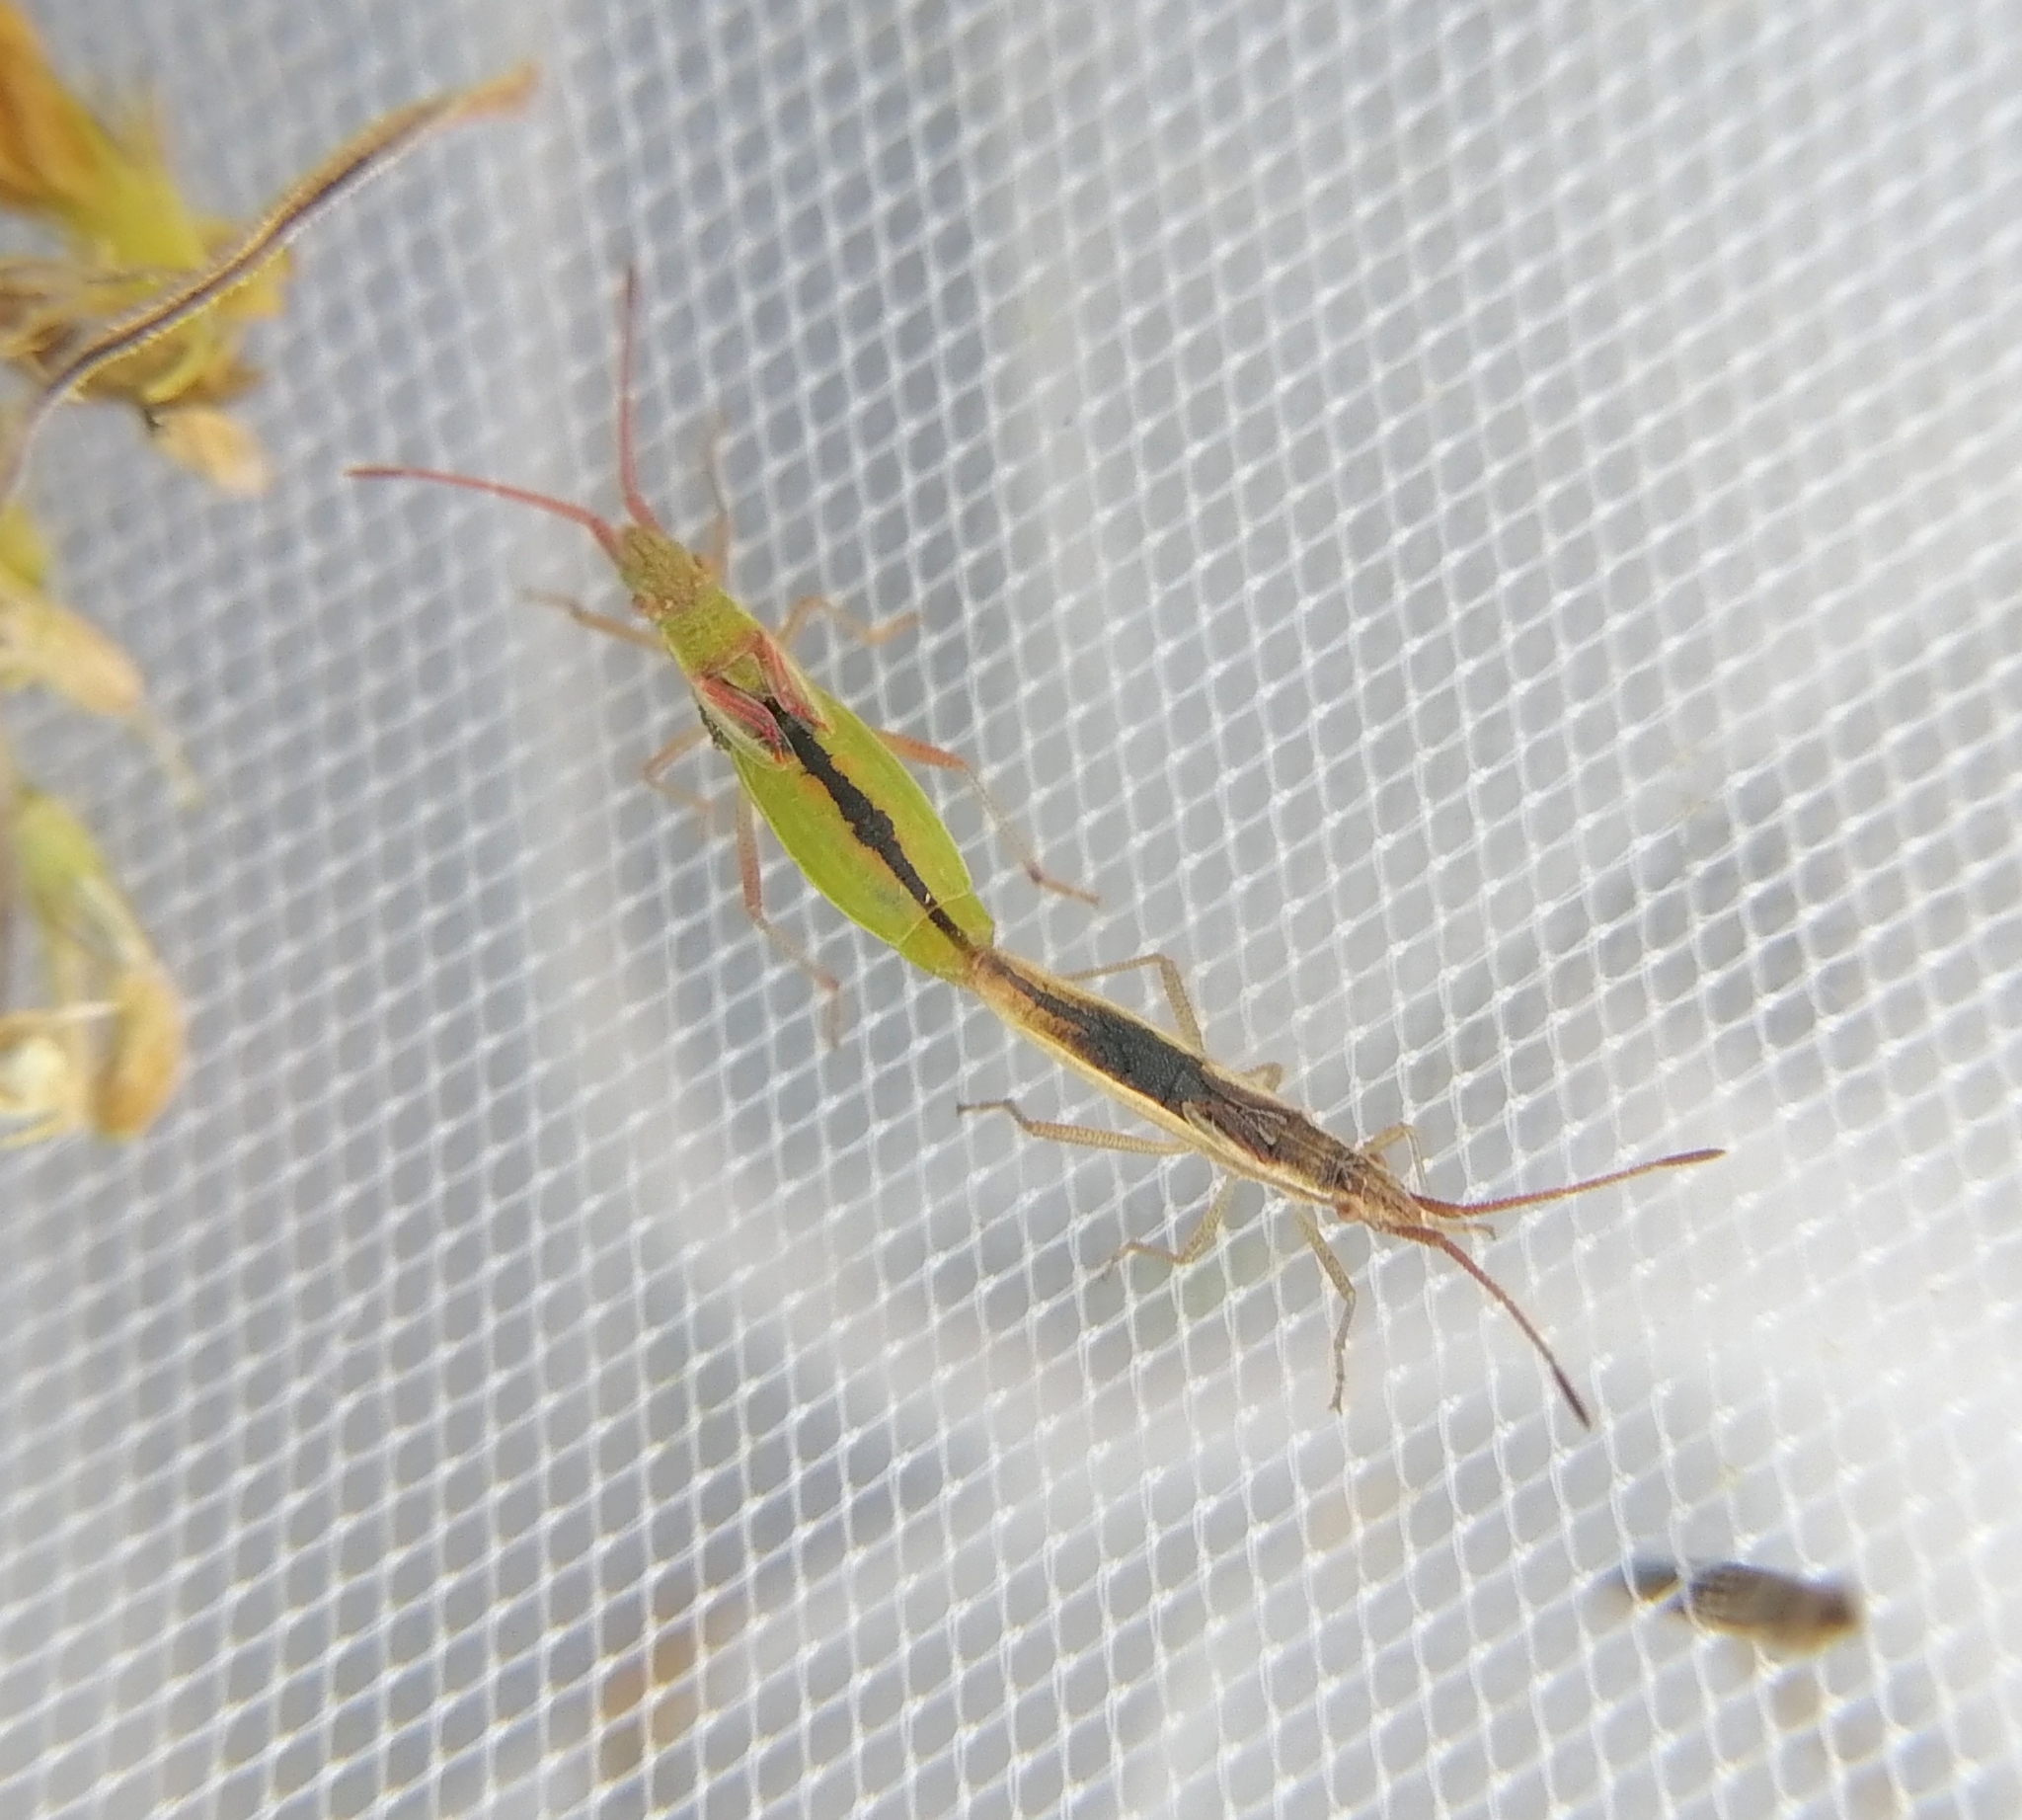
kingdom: Animalia
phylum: Arthropoda
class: Insecta
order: Hemiptera
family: Rhopalidae
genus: Myrmus
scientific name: Myrmus miriformis
